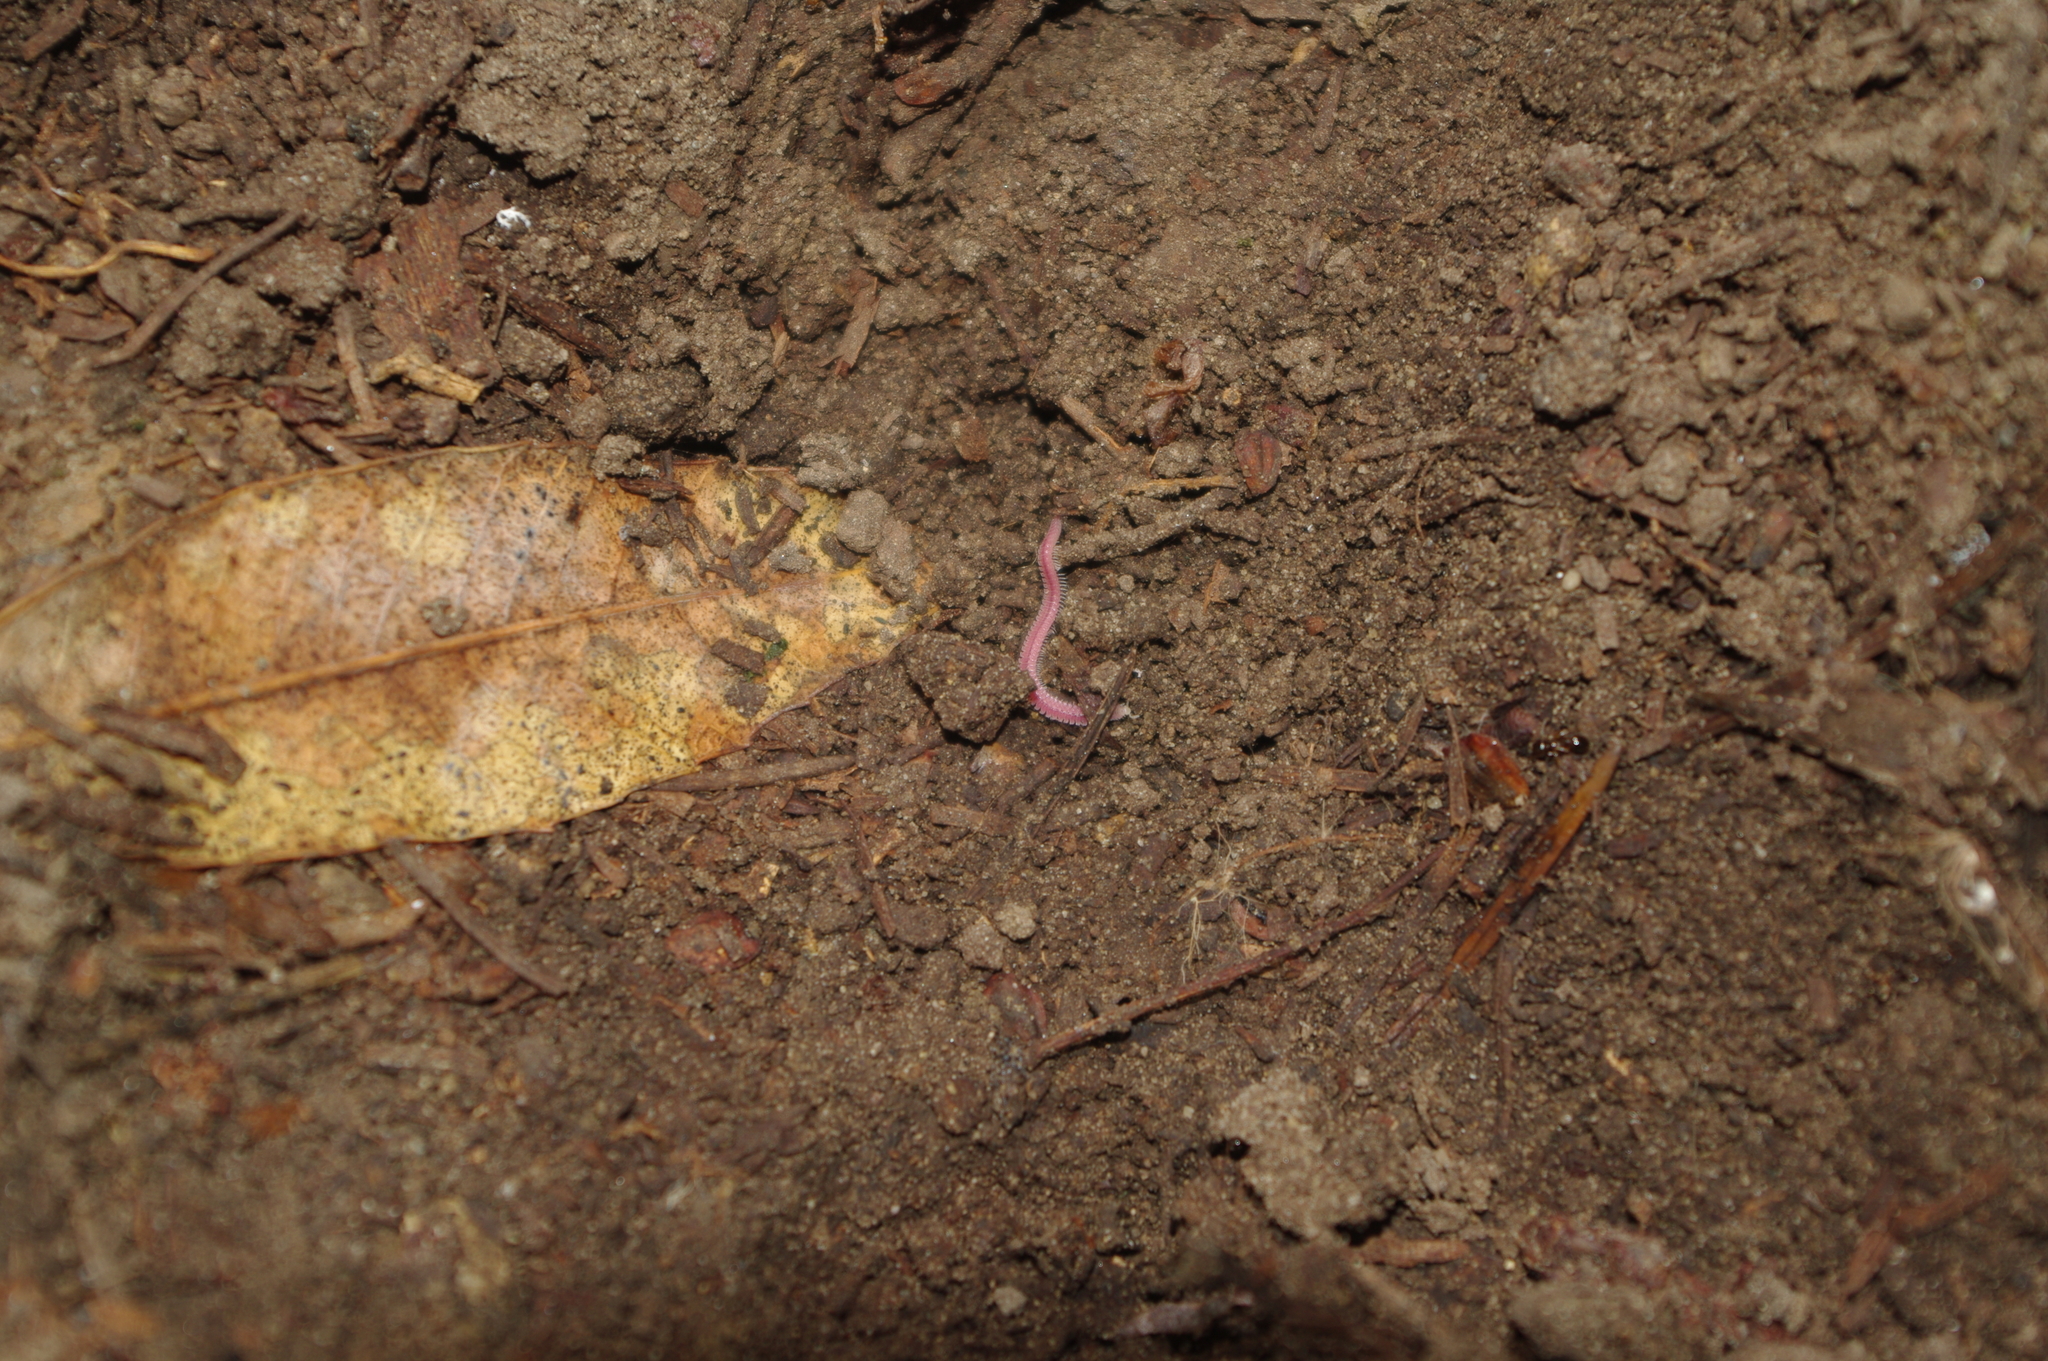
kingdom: Animalia
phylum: Arthropoda
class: Diplopoda
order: Platydesmida
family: Andrognathidae
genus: Gosodesmus
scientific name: Gosodesmus claremontus
